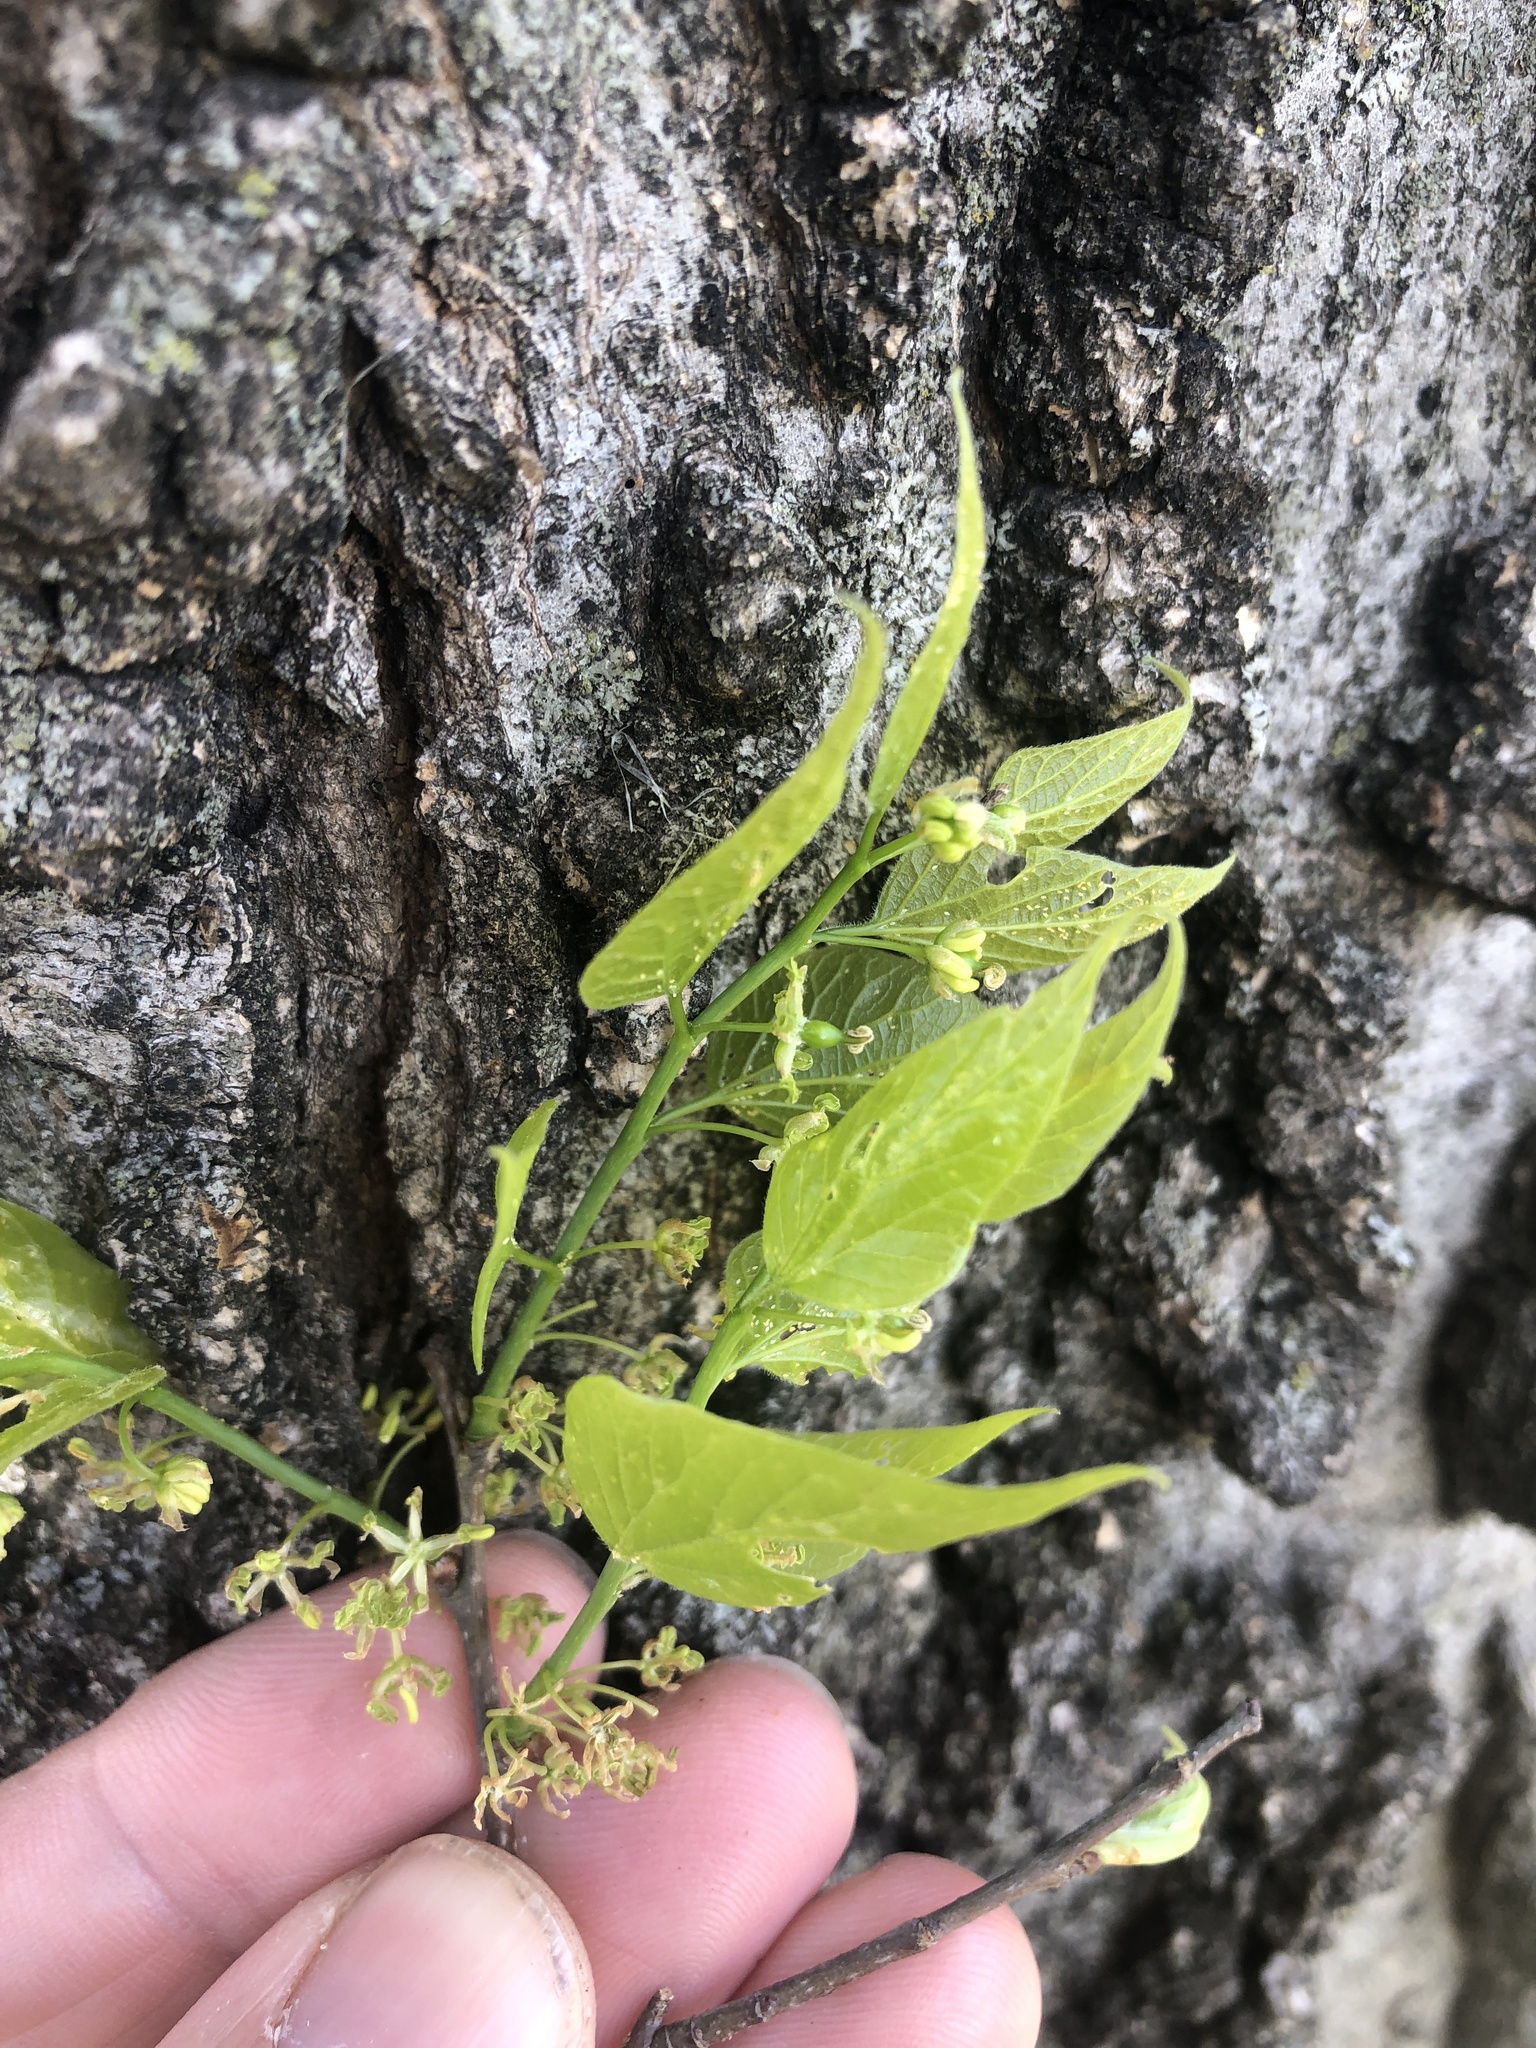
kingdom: Plantae
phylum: Tracheophyta
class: Magnoliopsida
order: Rosales
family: Cannabaceae
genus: Celtis
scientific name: Celtis laevigata
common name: Sugarberry
